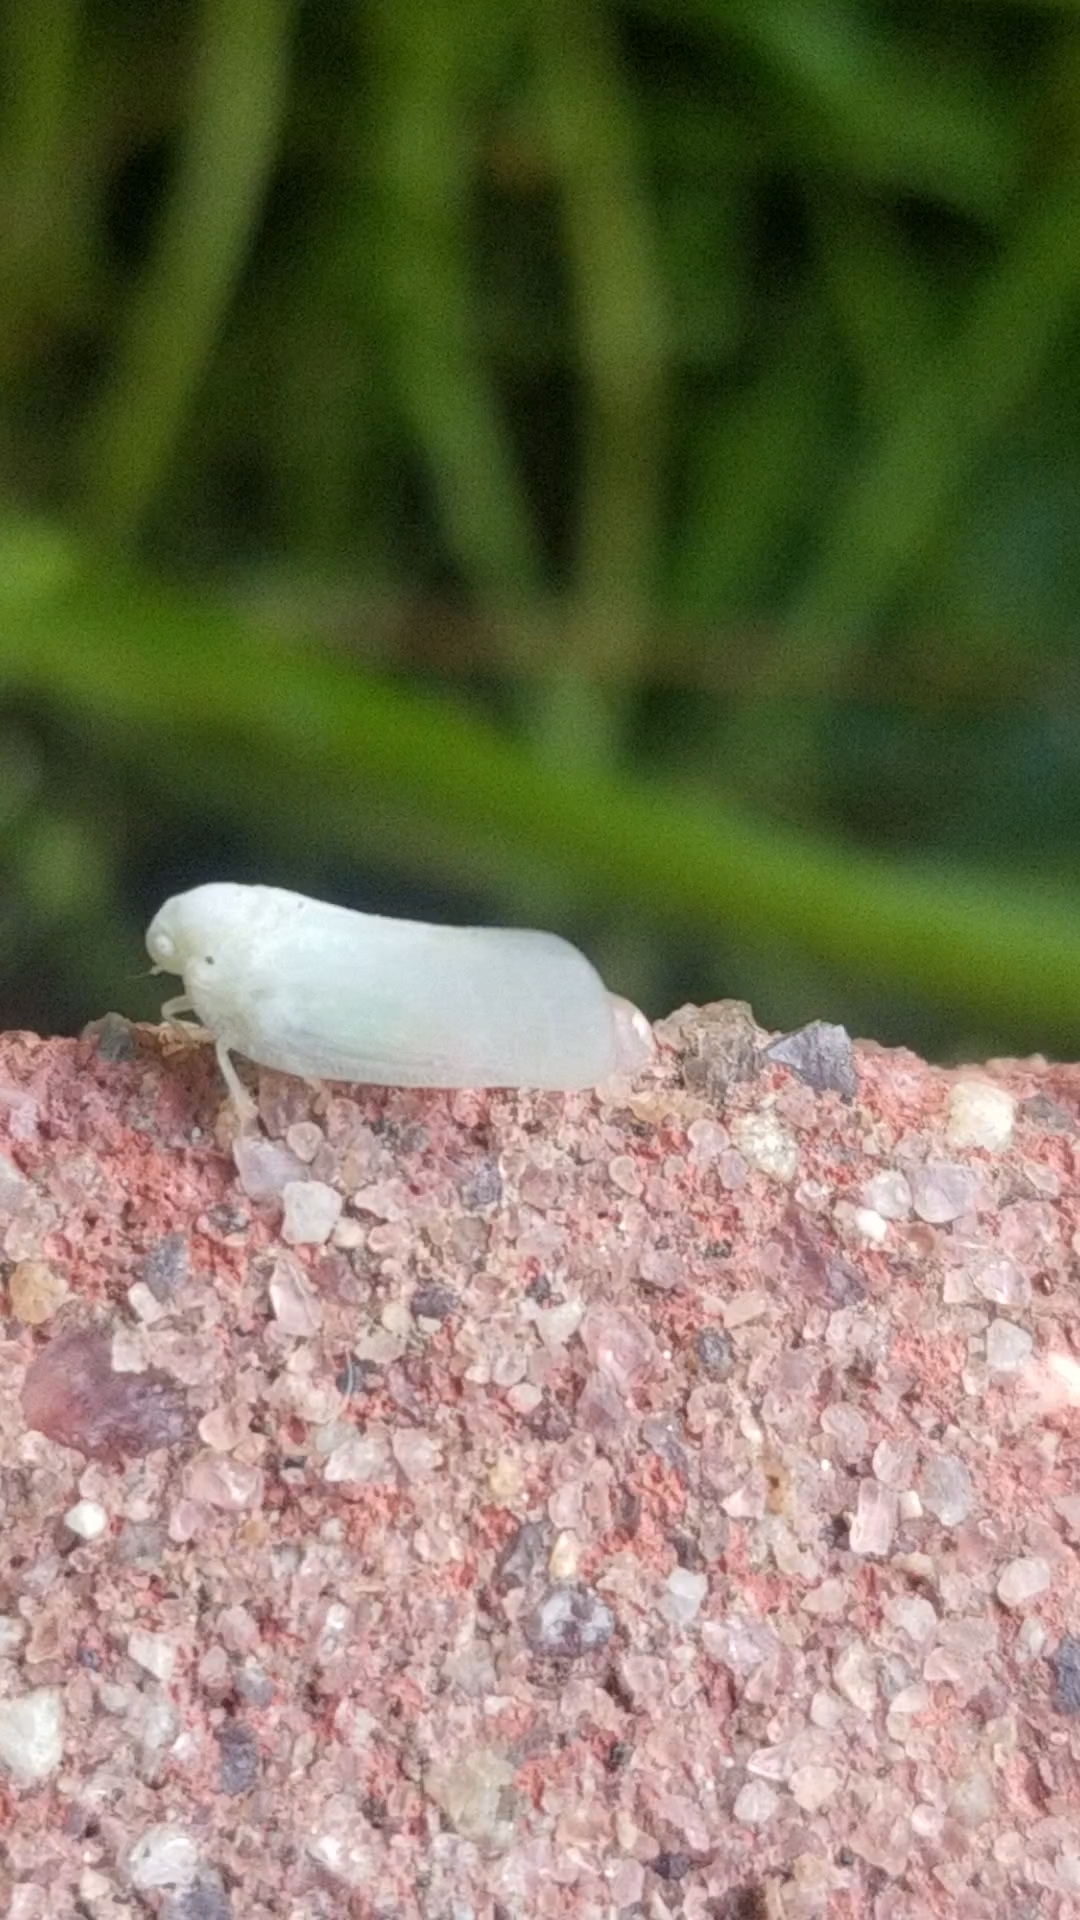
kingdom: Animalia
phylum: Arthropoda
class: Insecta
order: Hemiptera
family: Flatidae
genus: Metcalfa
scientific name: Metcalfa pruinosa
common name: Citrus flatid planthopper
